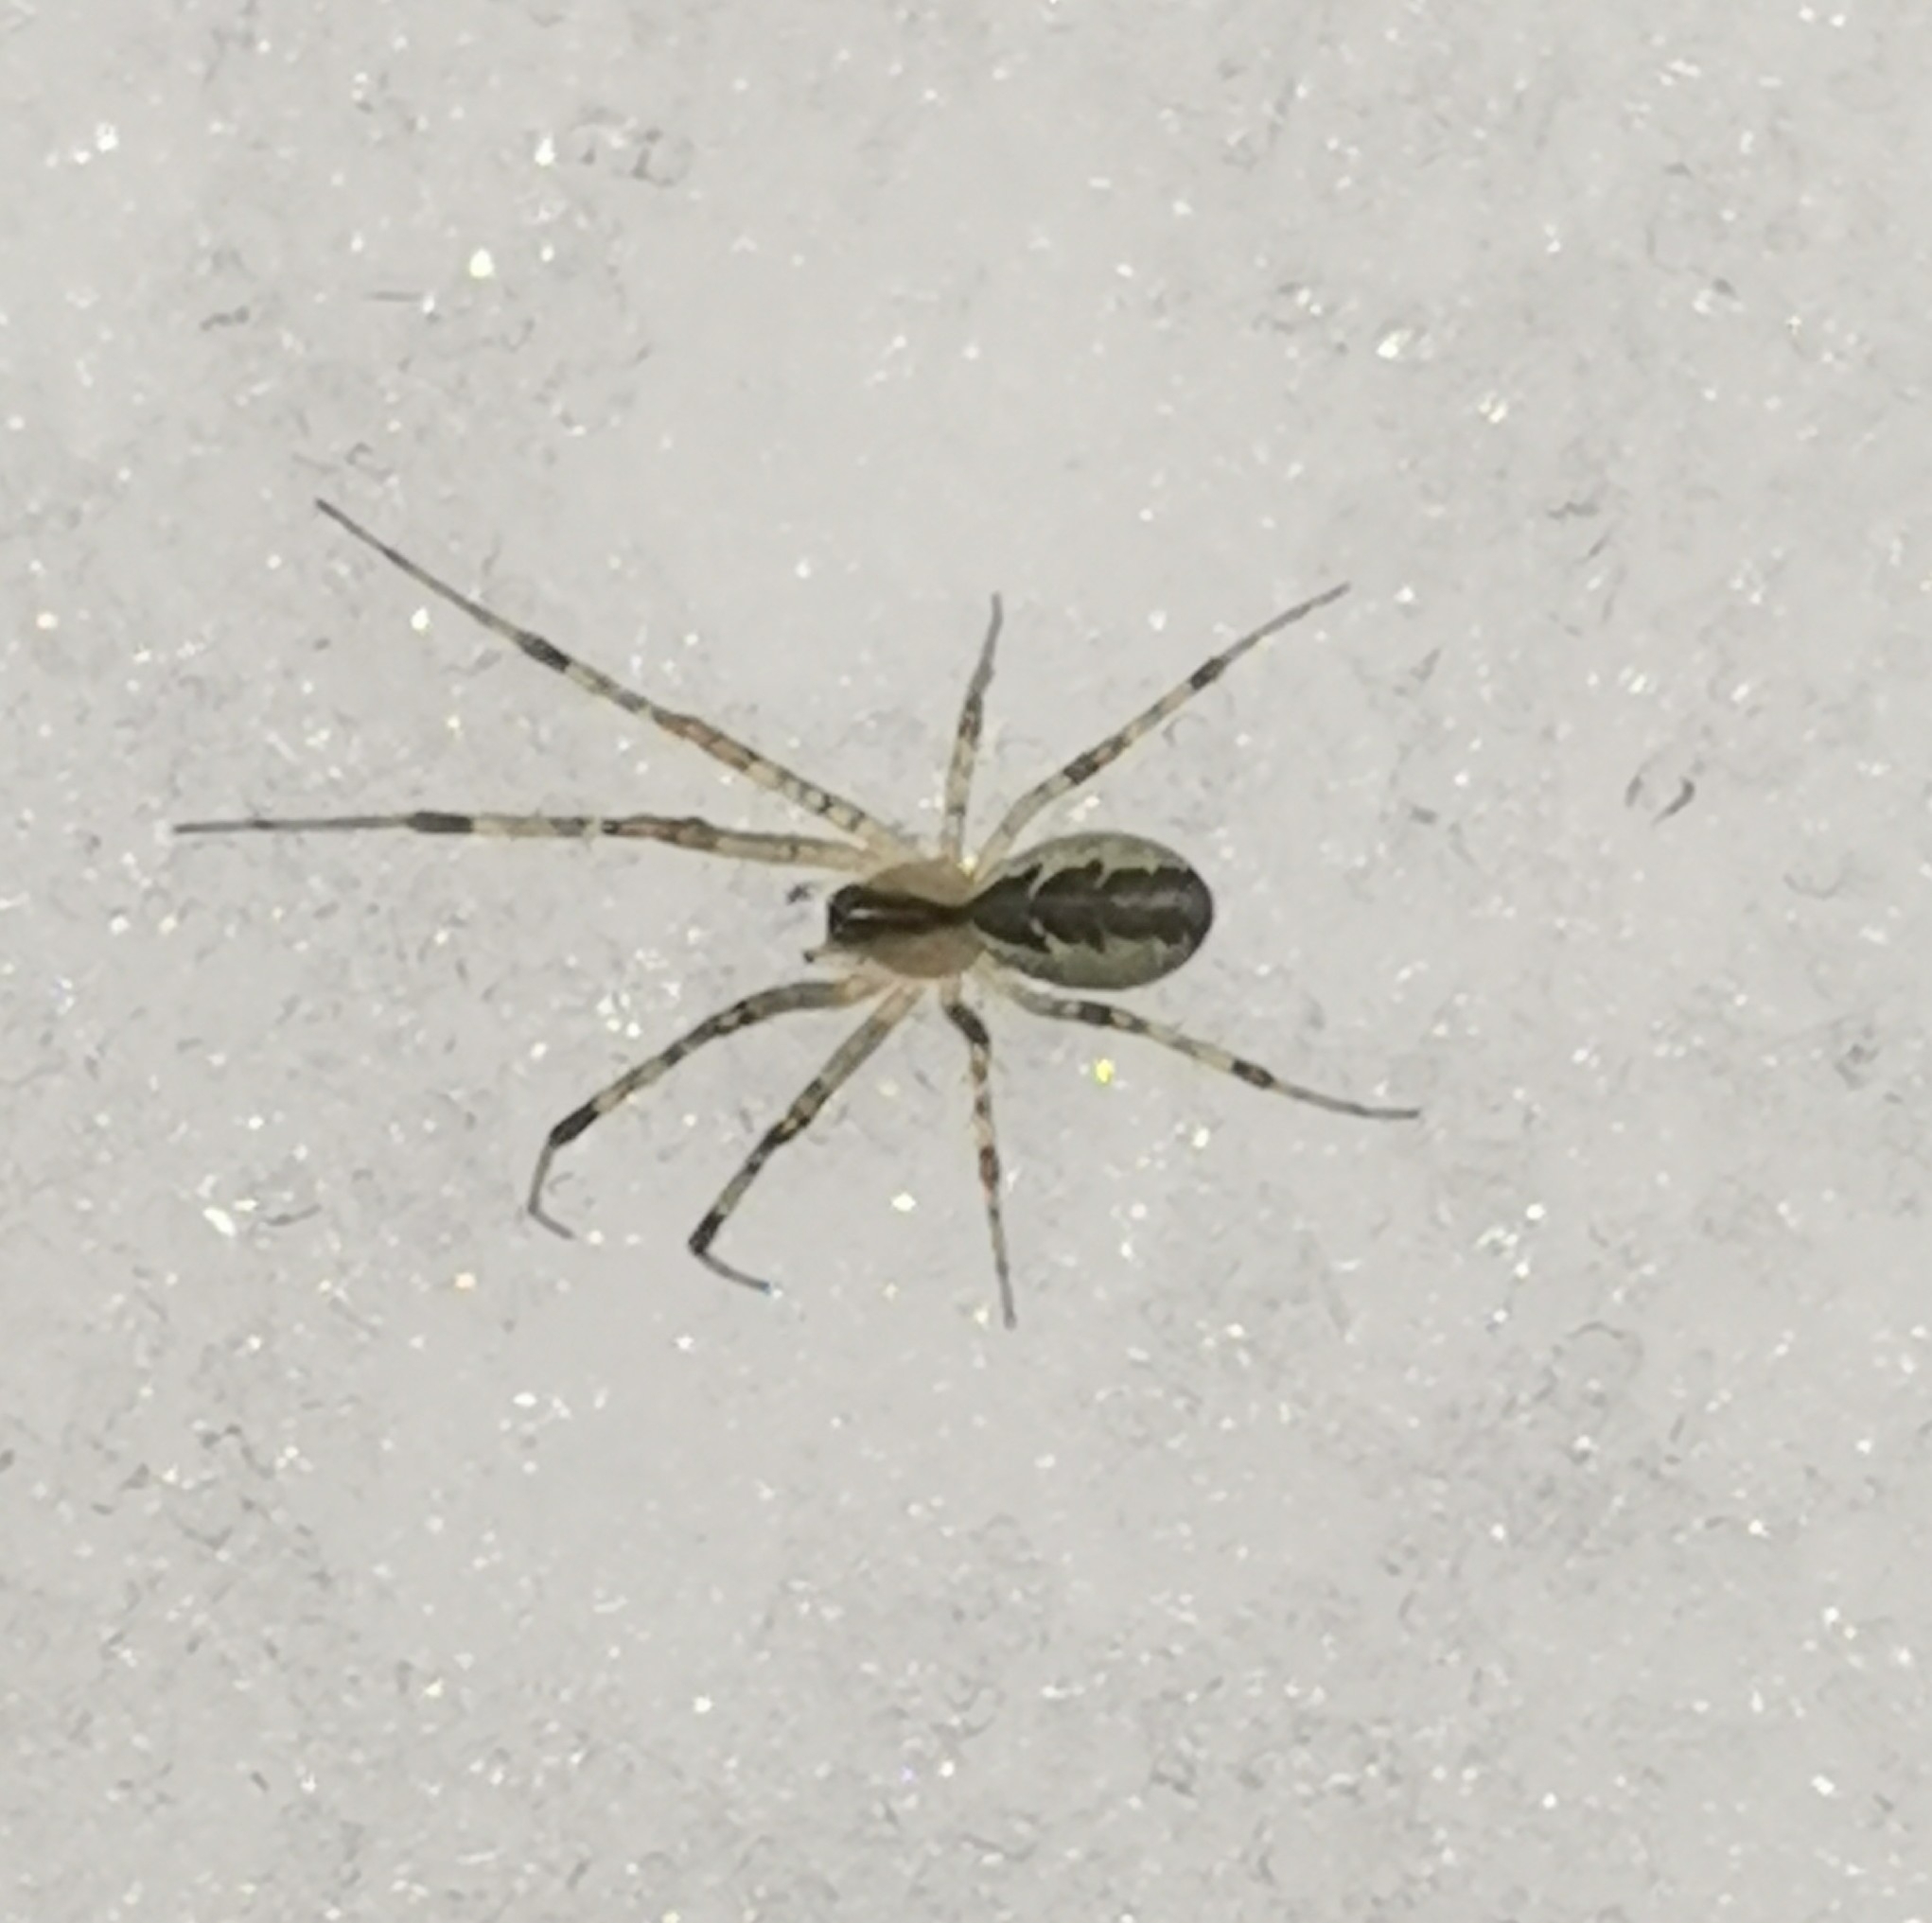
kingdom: Animalia
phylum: Arthropoda
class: Arachnida
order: Araneae
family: Linyphiidae
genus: Pityohyphantes
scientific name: Pityohyphantes phrygianus
